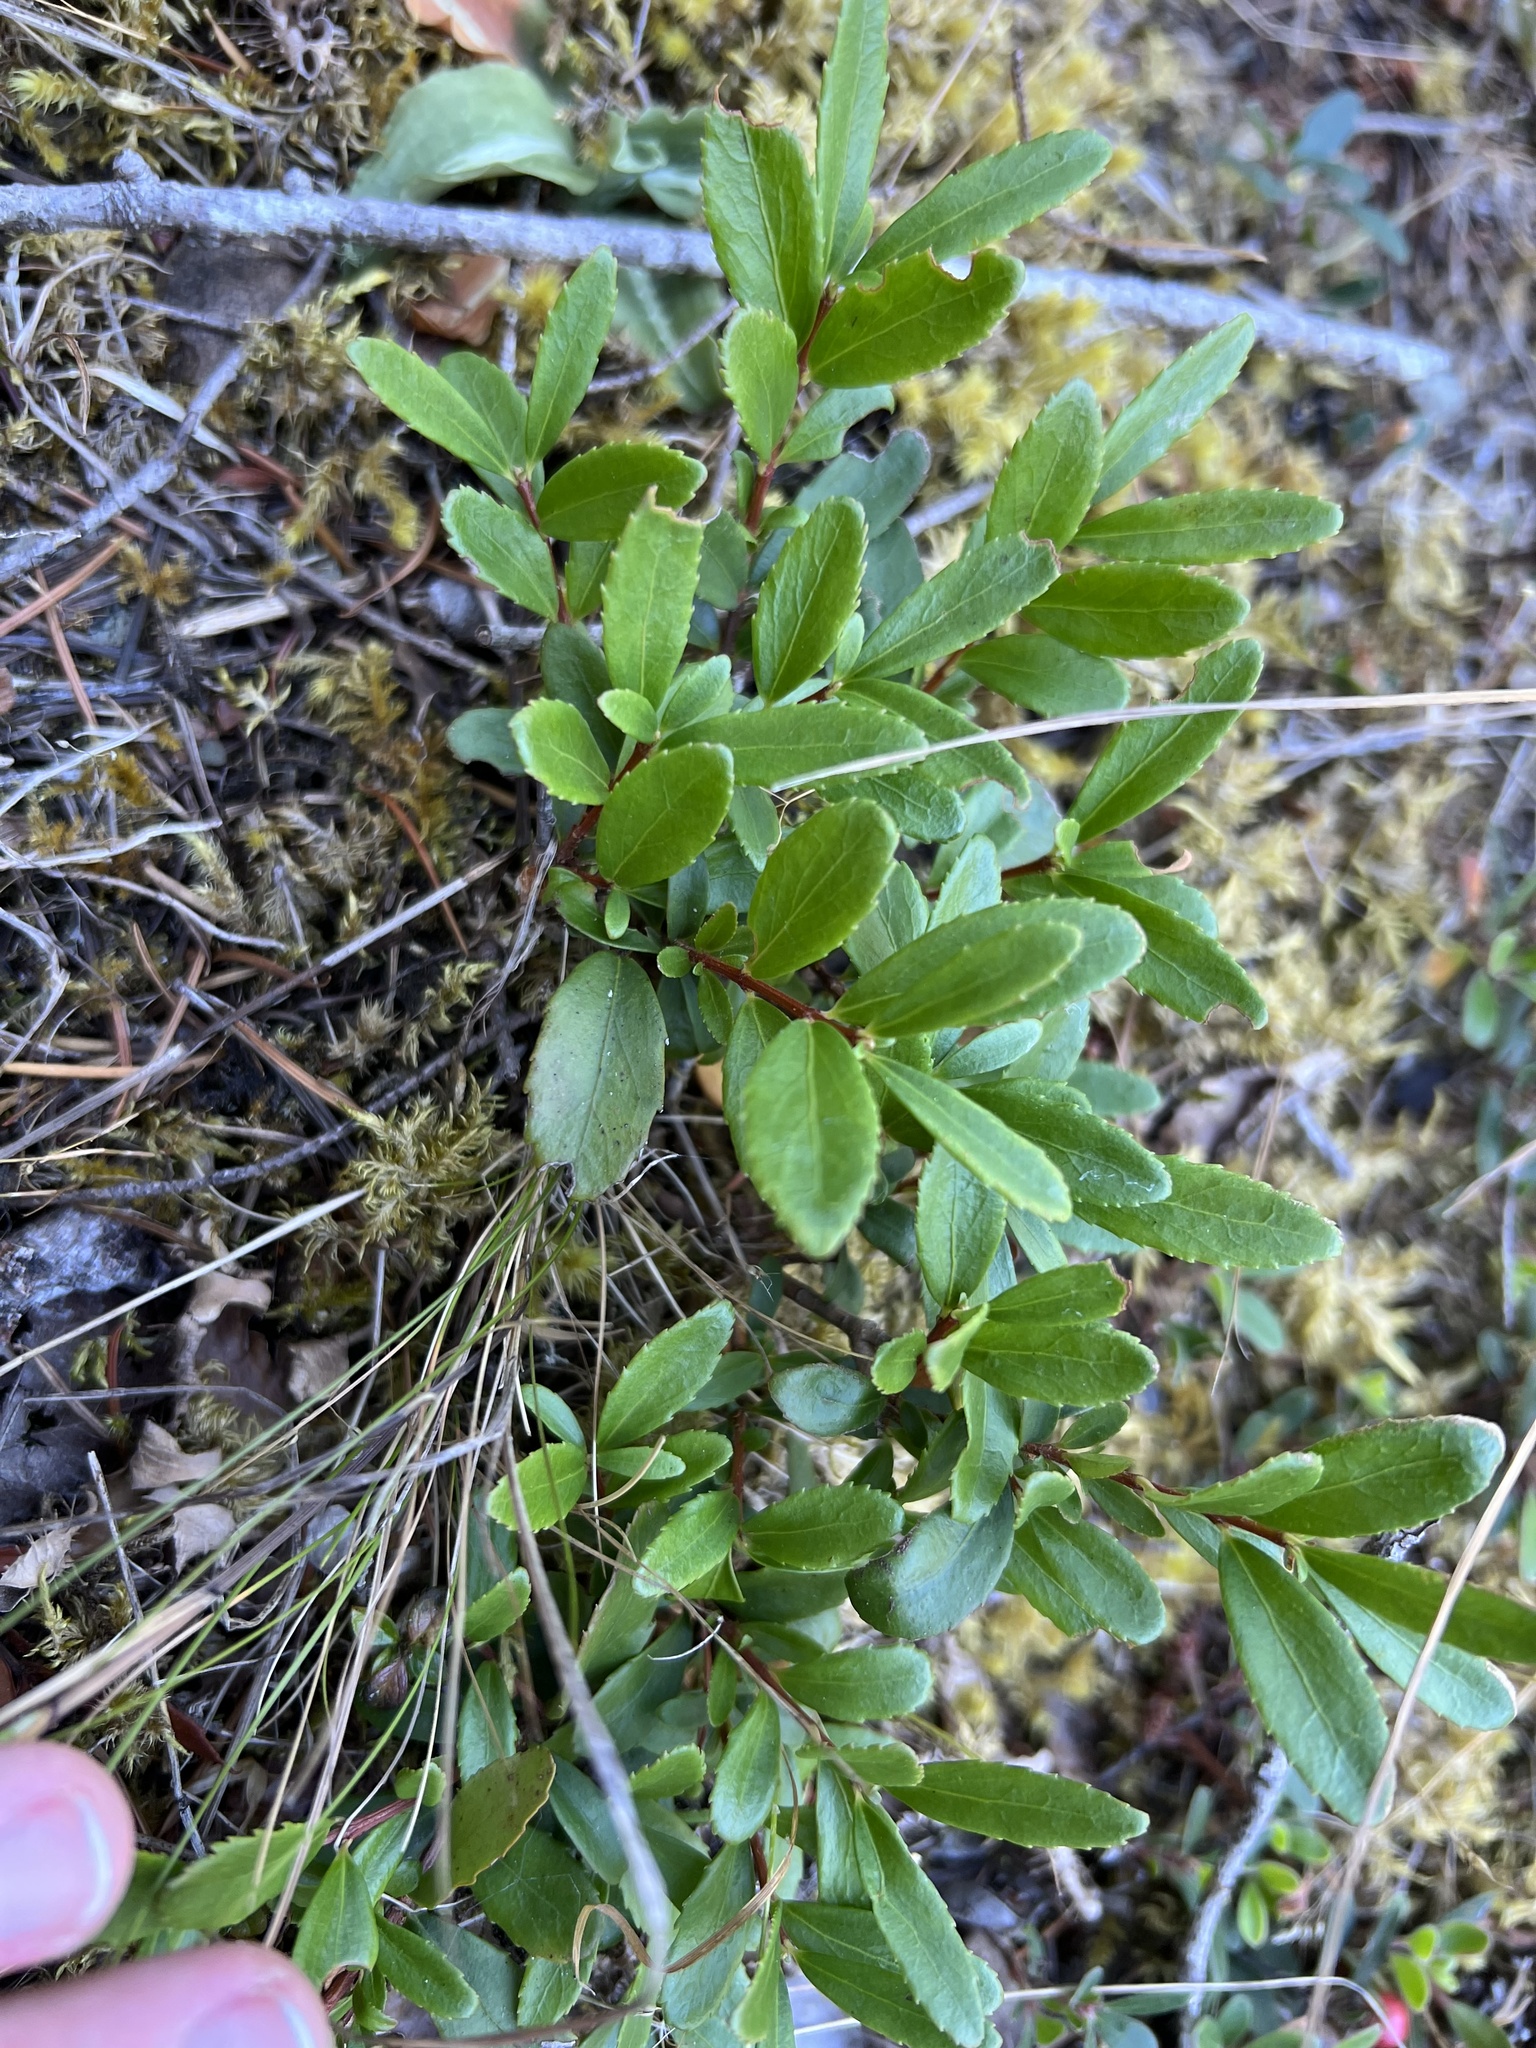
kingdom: Plantae
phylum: Tracheophyta
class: Magnoliopsida
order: Celastrales
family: Celastraceae
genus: Paxistima
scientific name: Paxistima myrsinites
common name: Mountain-lover
